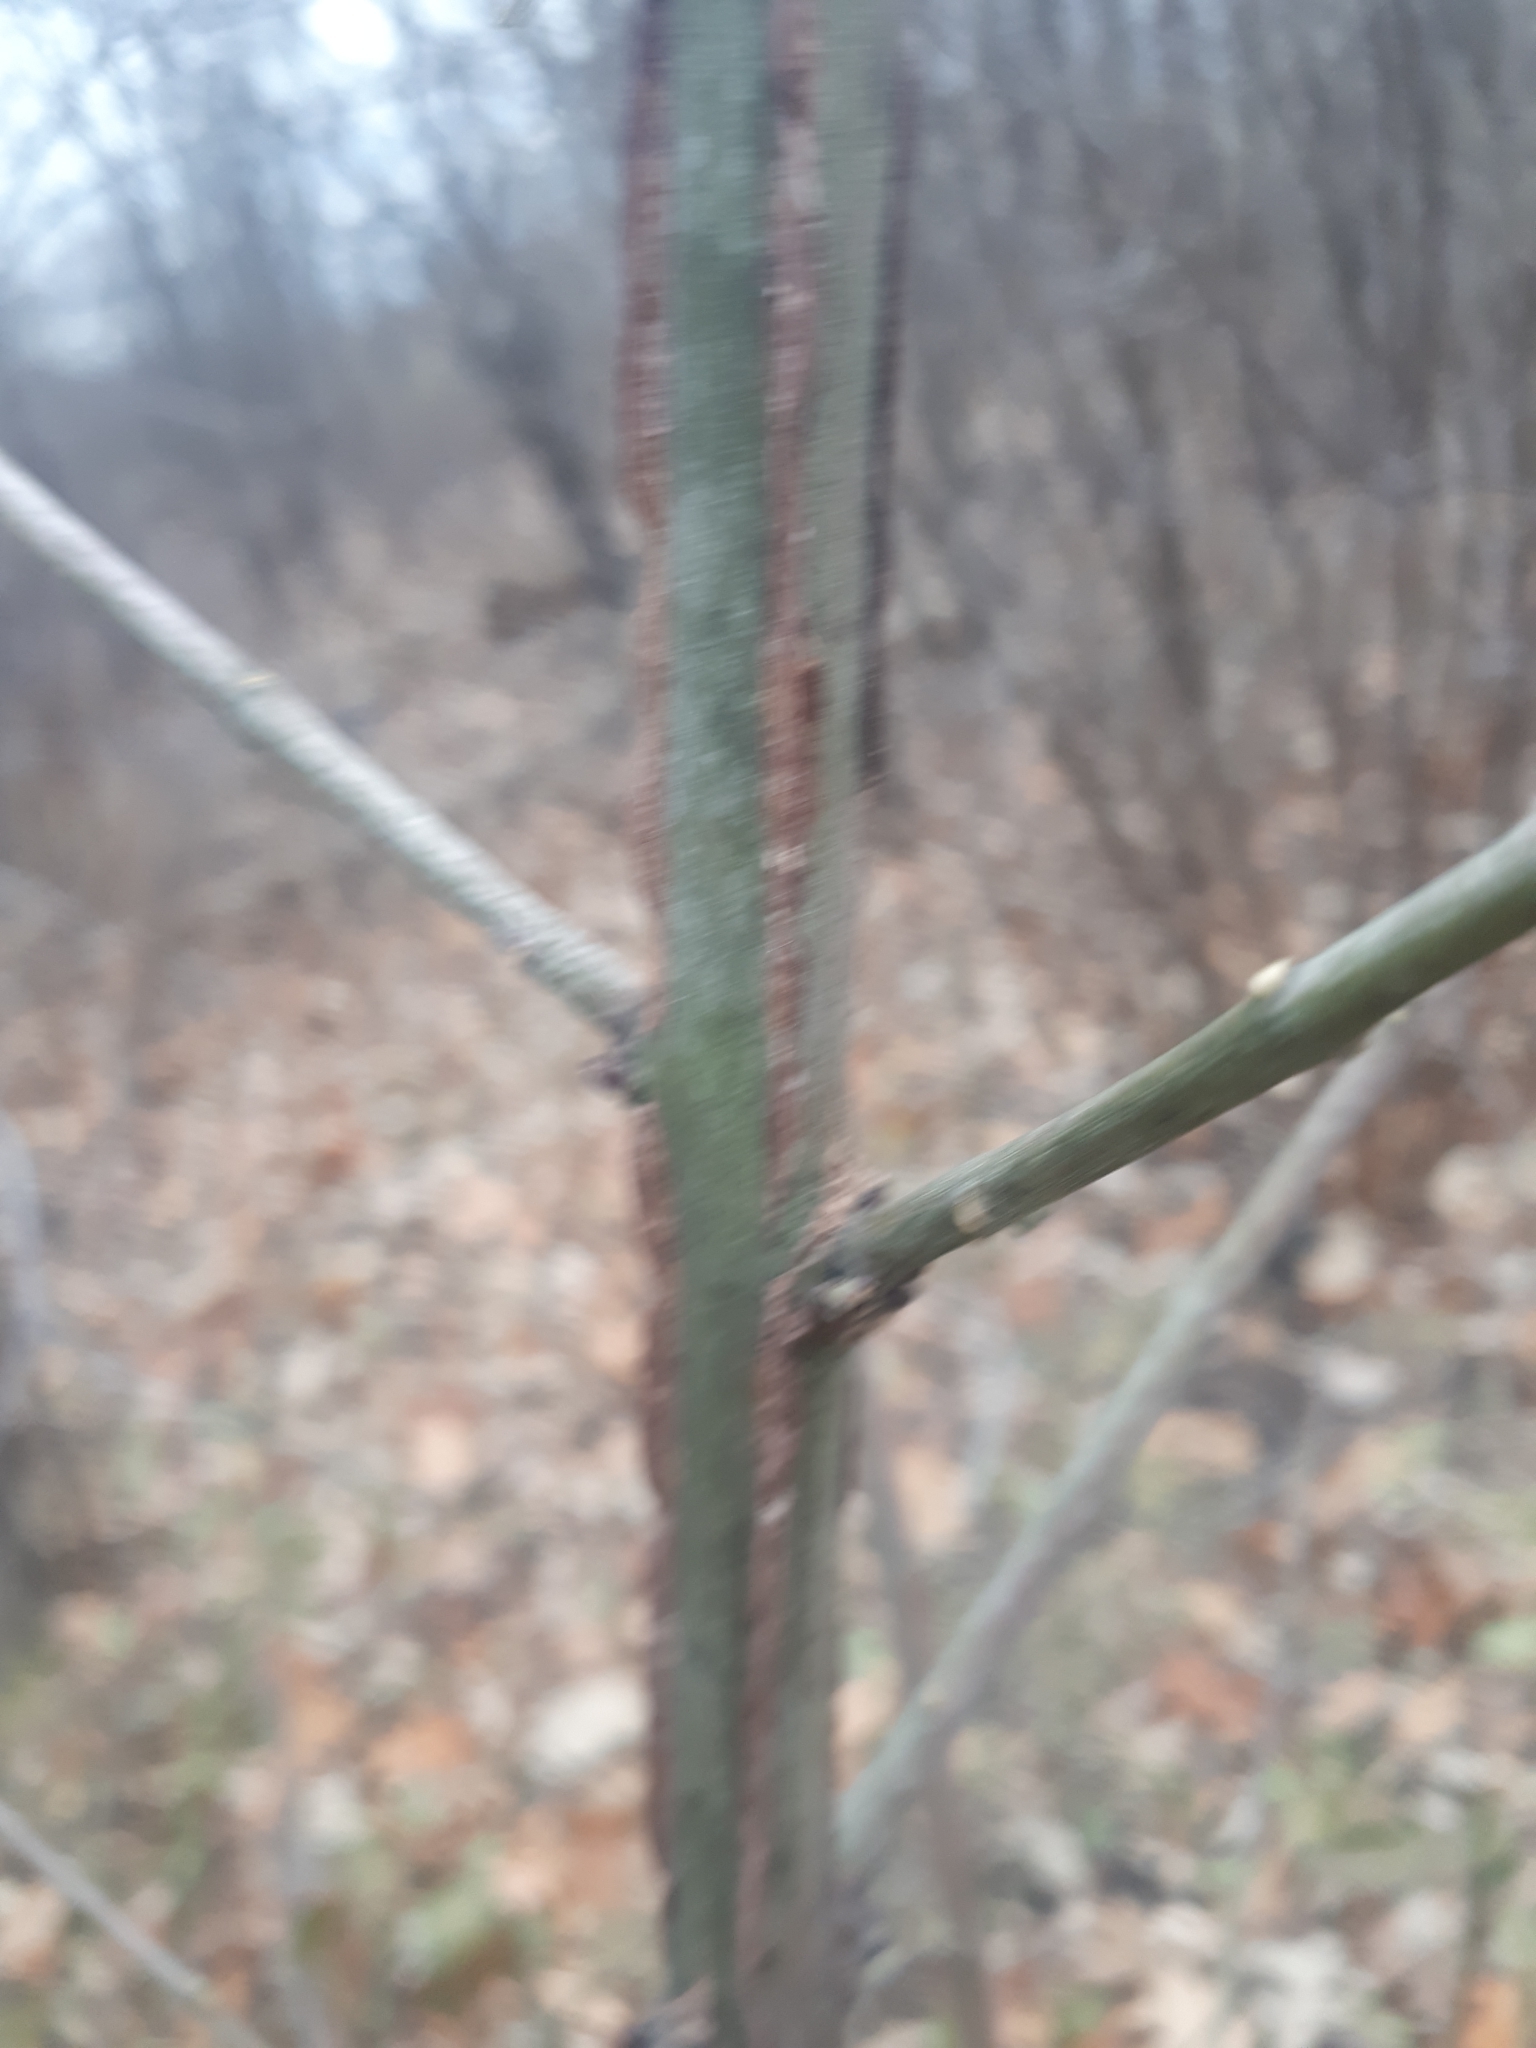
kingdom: Plantae
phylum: Tracheophyta
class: Magnoliopsida
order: Celastrales
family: Celastraceae
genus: Euonymus
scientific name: Euonymus alatus
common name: Winged euonymus
